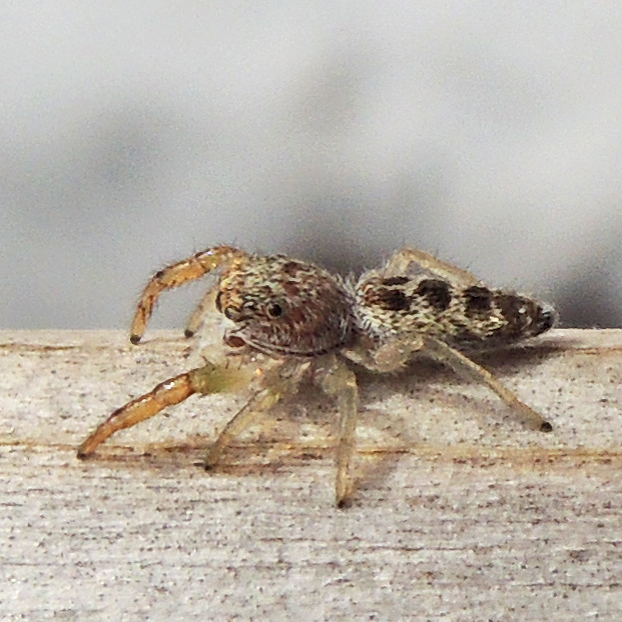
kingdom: Animalia
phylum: Arthropoda
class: Arachnida
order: Araneae
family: Salticidae
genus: Hentzia
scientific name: Hentzia
